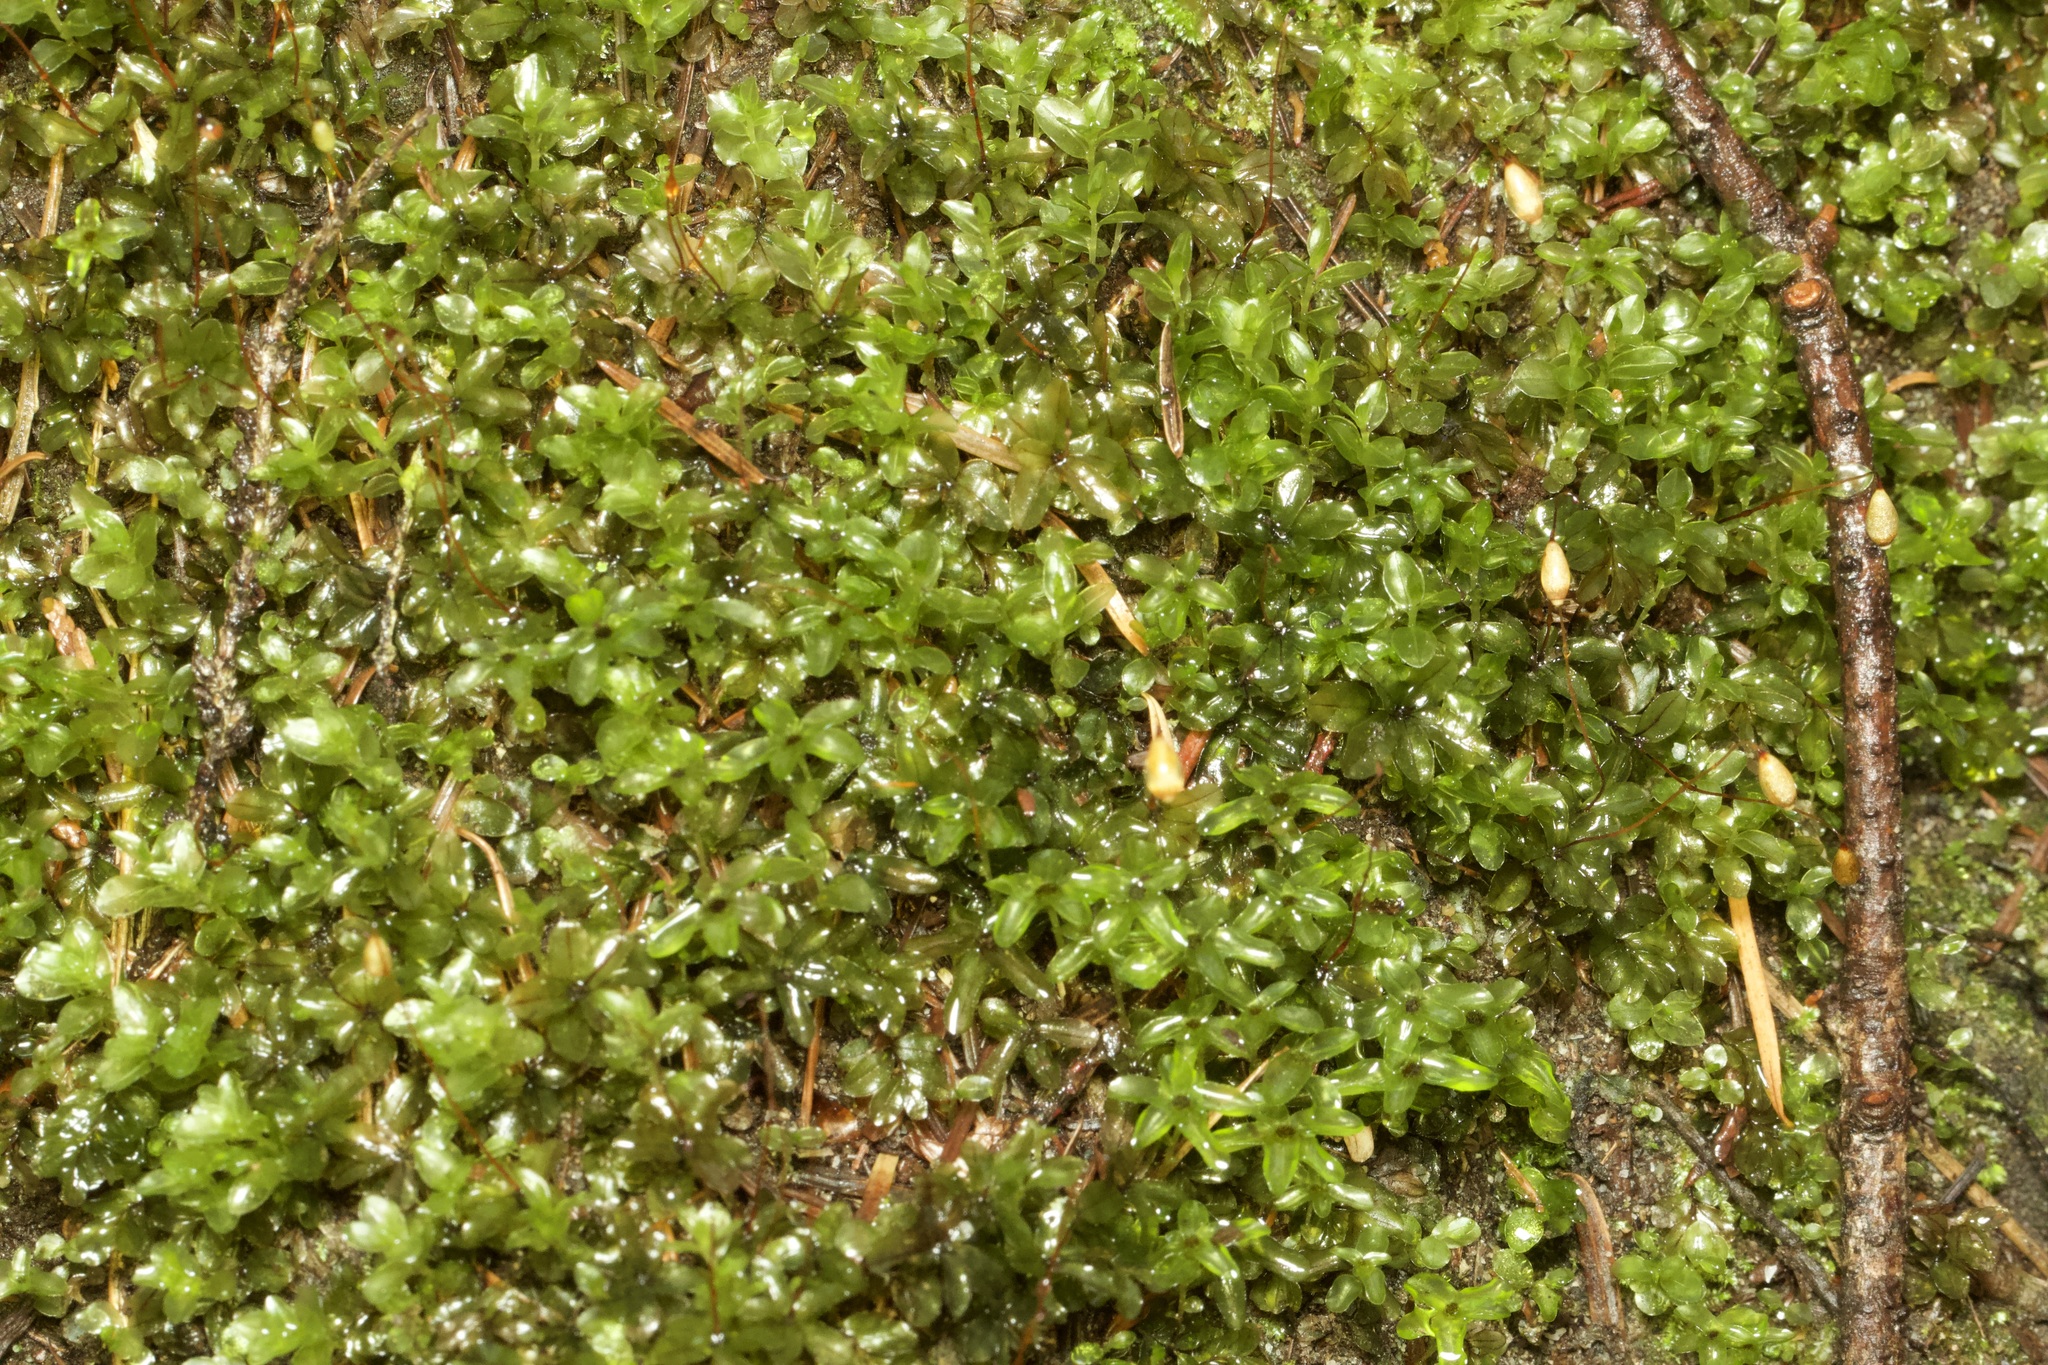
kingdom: Plantae
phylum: Bryophyta
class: Bryopsida
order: Bryales
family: Mniaceae
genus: Rhizomnium
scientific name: Rhizomnium glabrescens
